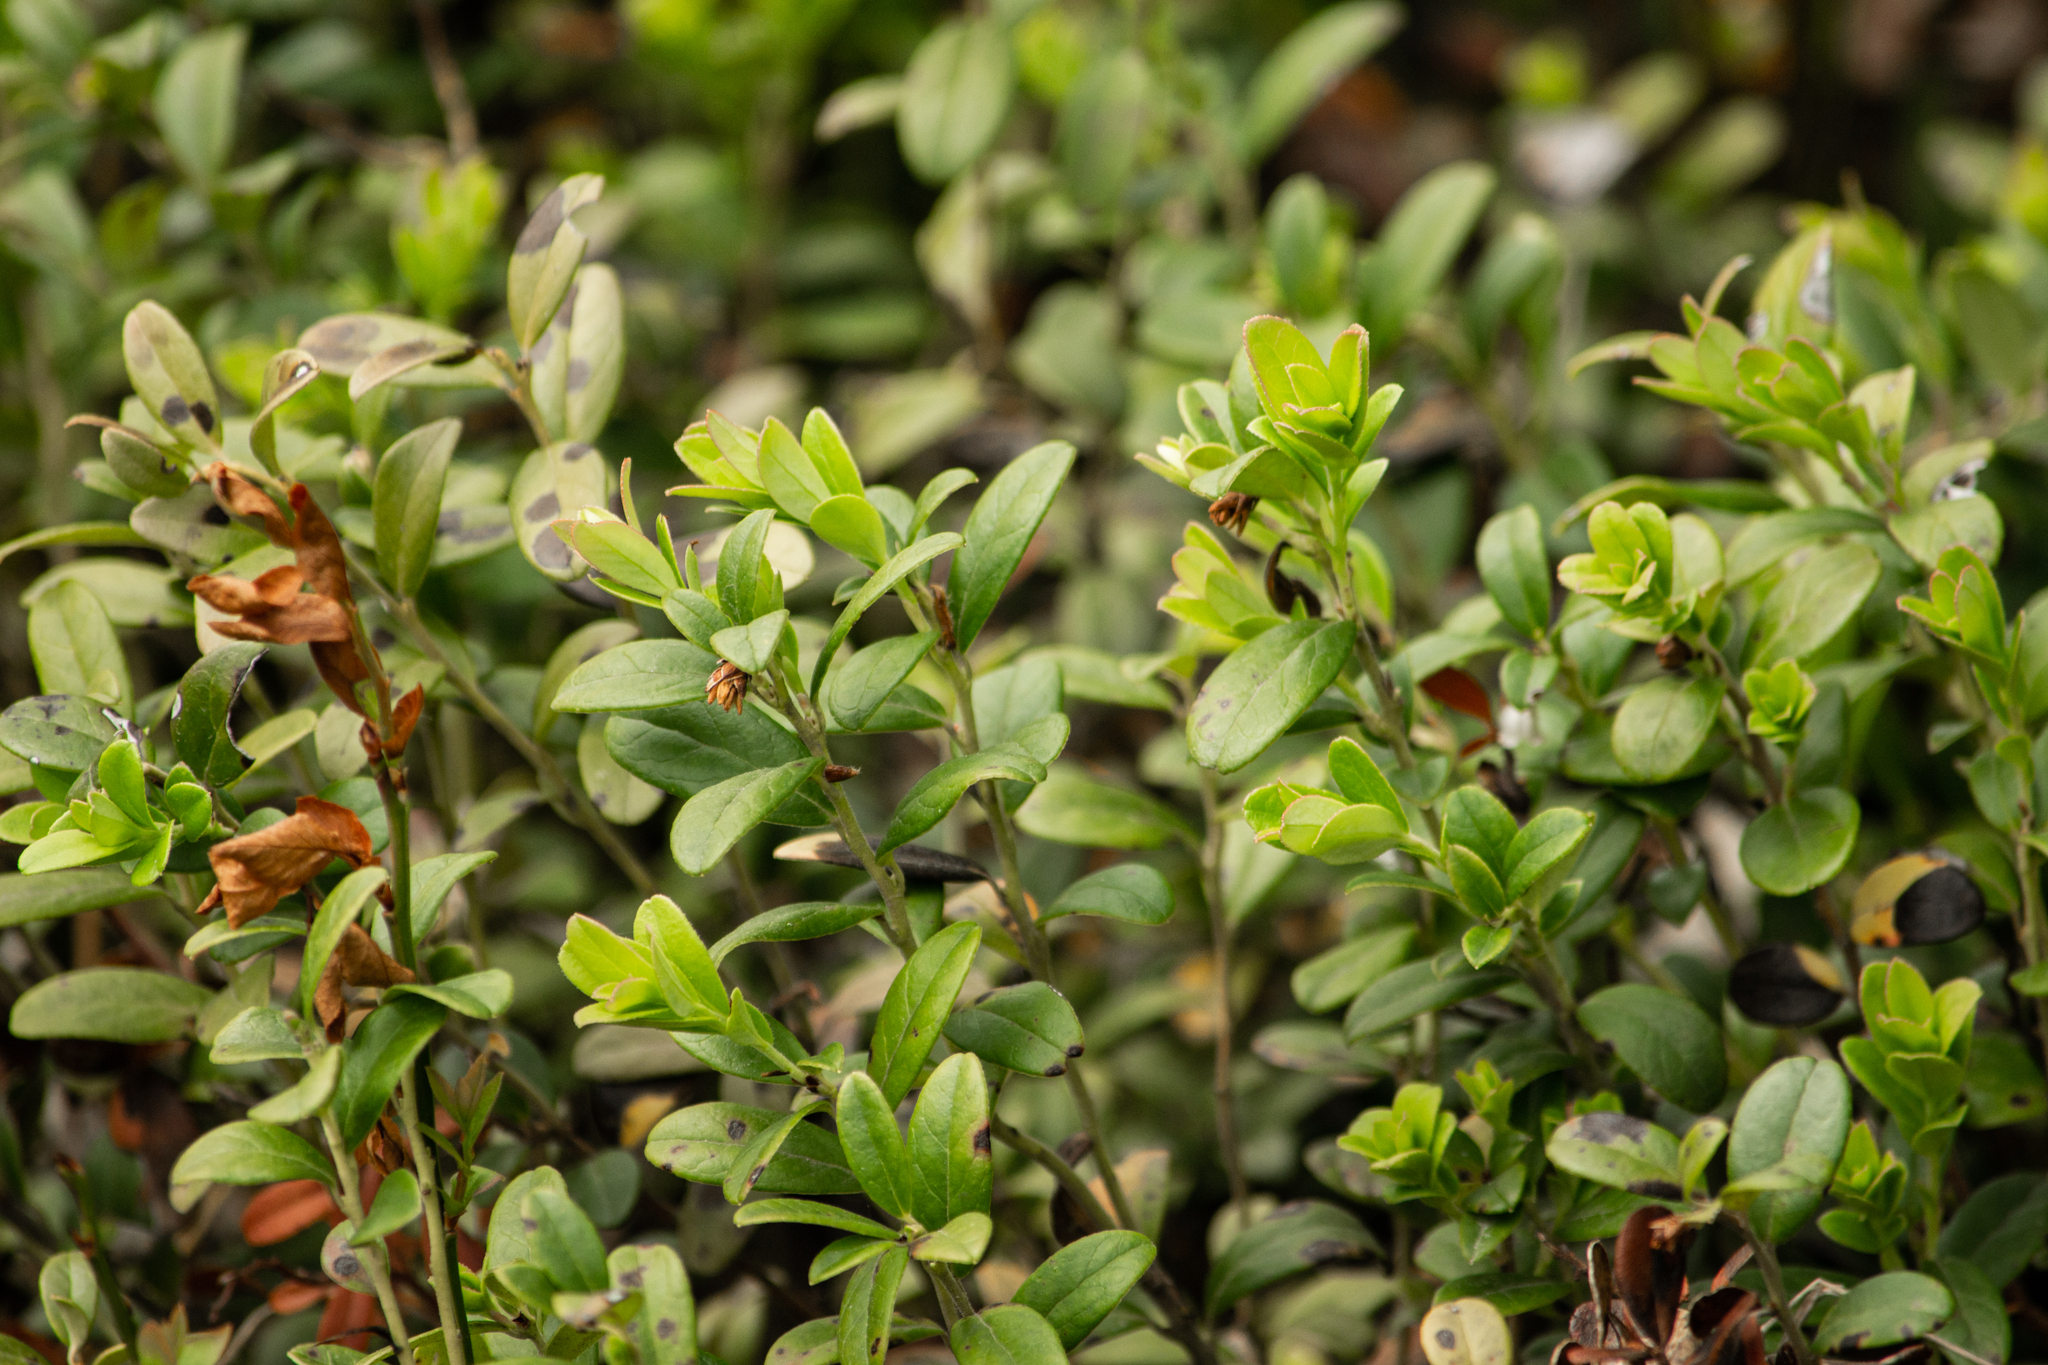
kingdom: Plantae
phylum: Tracheophyta
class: Magnoliopsida
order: Ericales
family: Ericaceae
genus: Vaccinium
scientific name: Vaccinium vitis-idaea
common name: Cowberry
